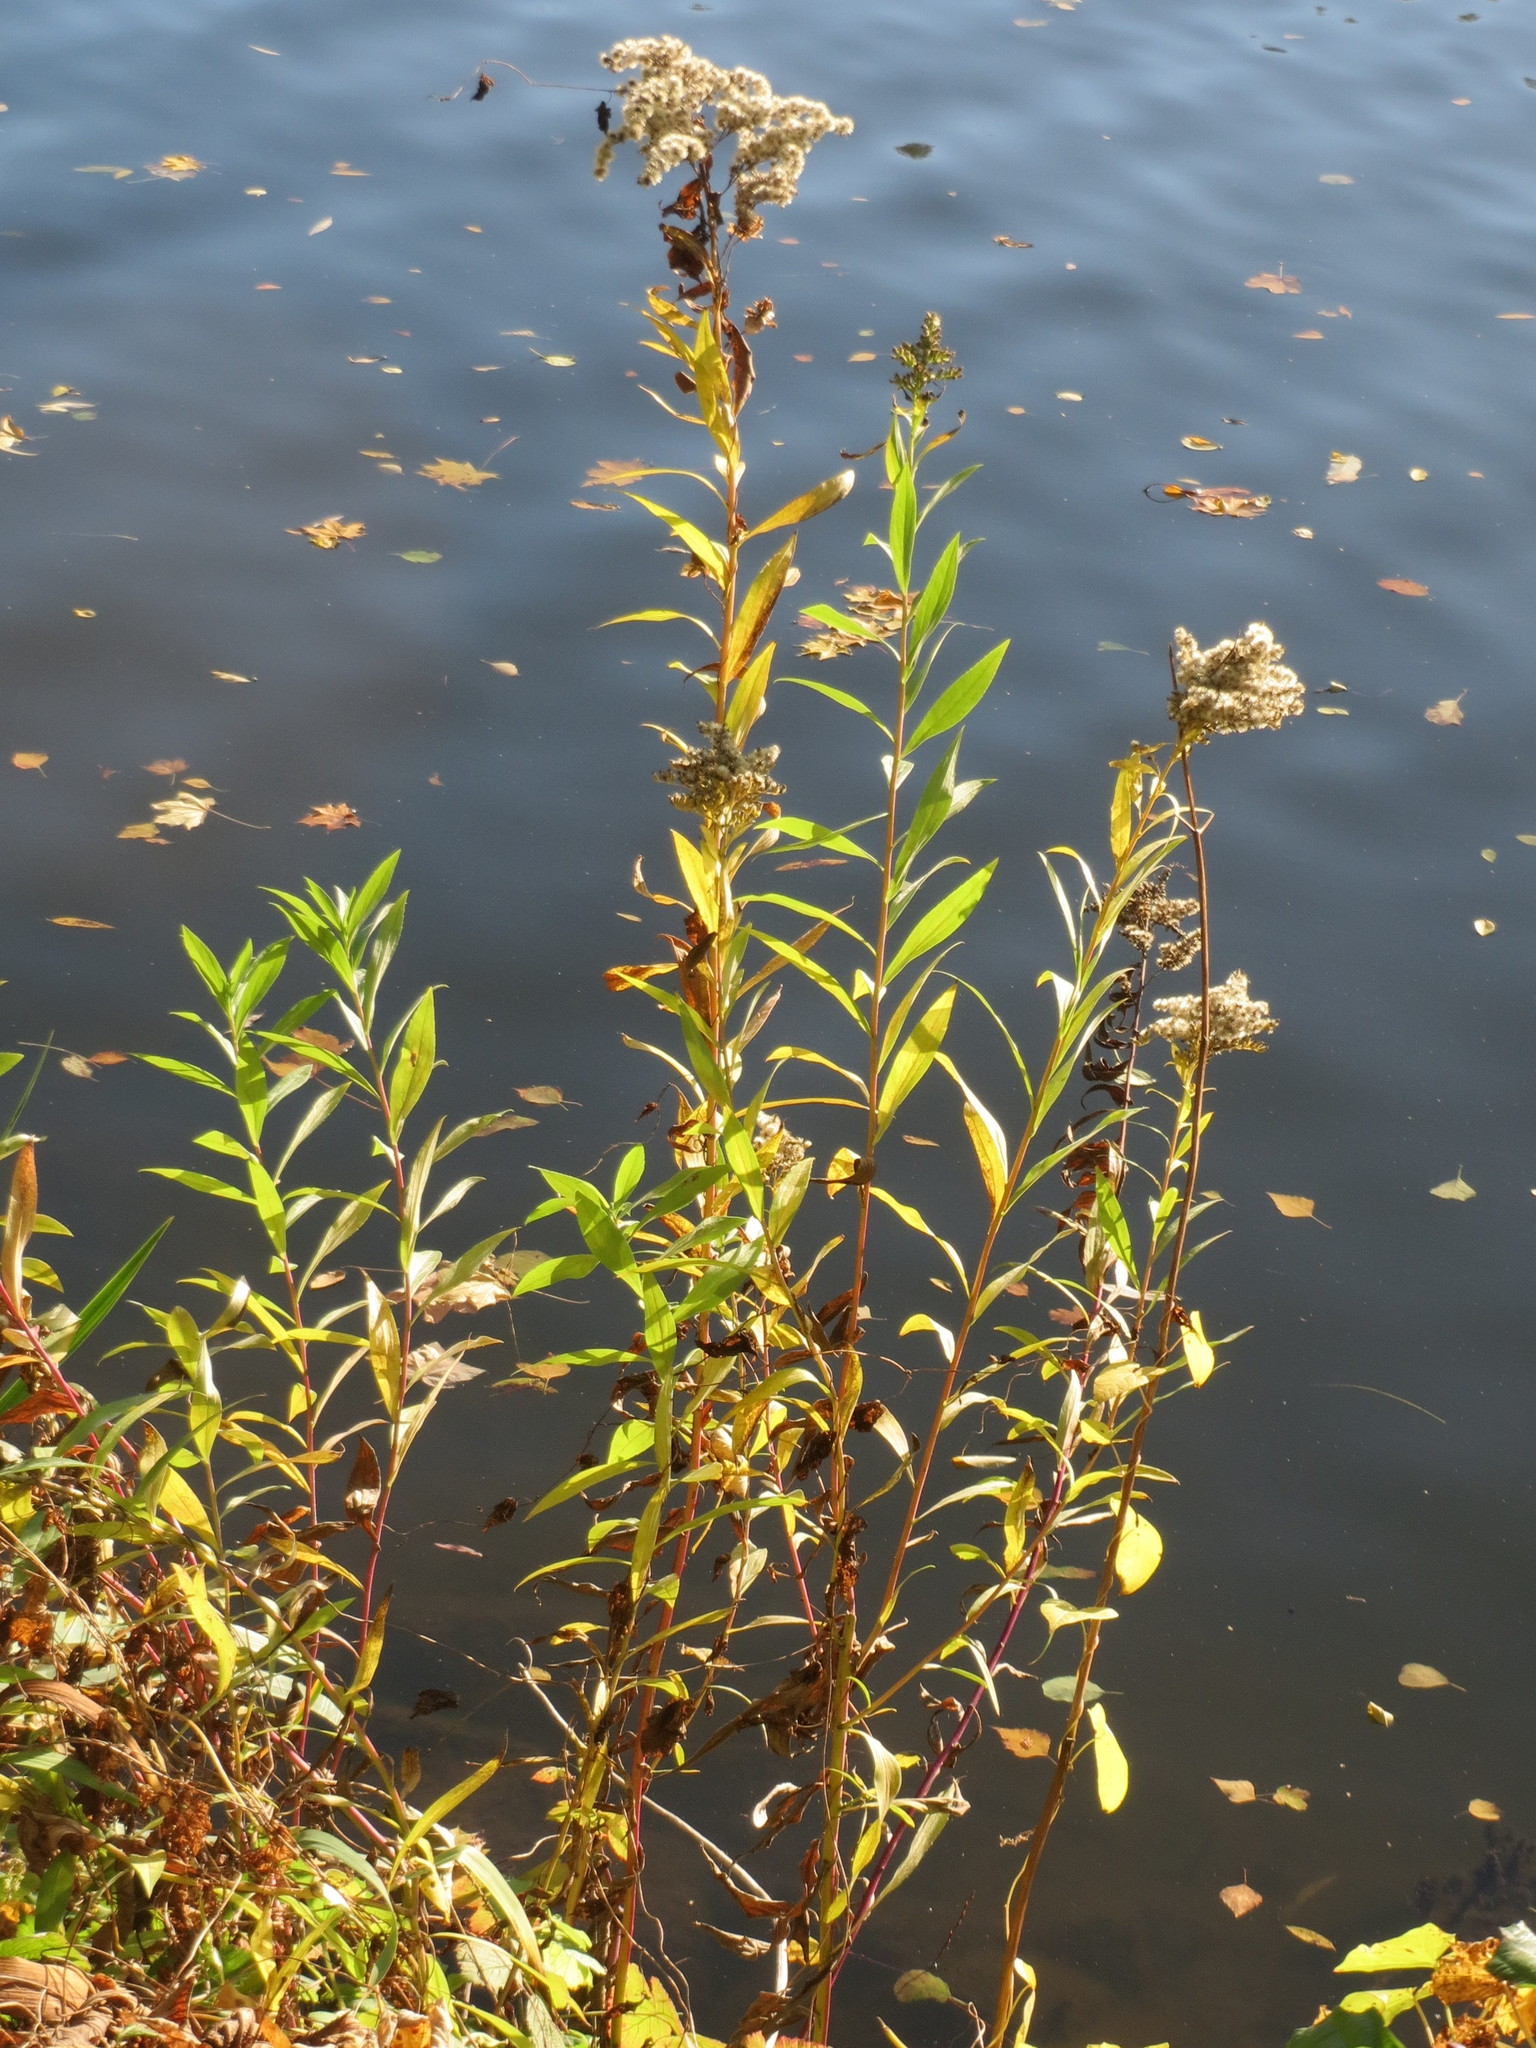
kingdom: Plantae
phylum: Tracheophyta
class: Magnoliopsida
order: Asterales
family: Asteraceae
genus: Solidago
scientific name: Solidago gigantea
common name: Giant goldenrod
